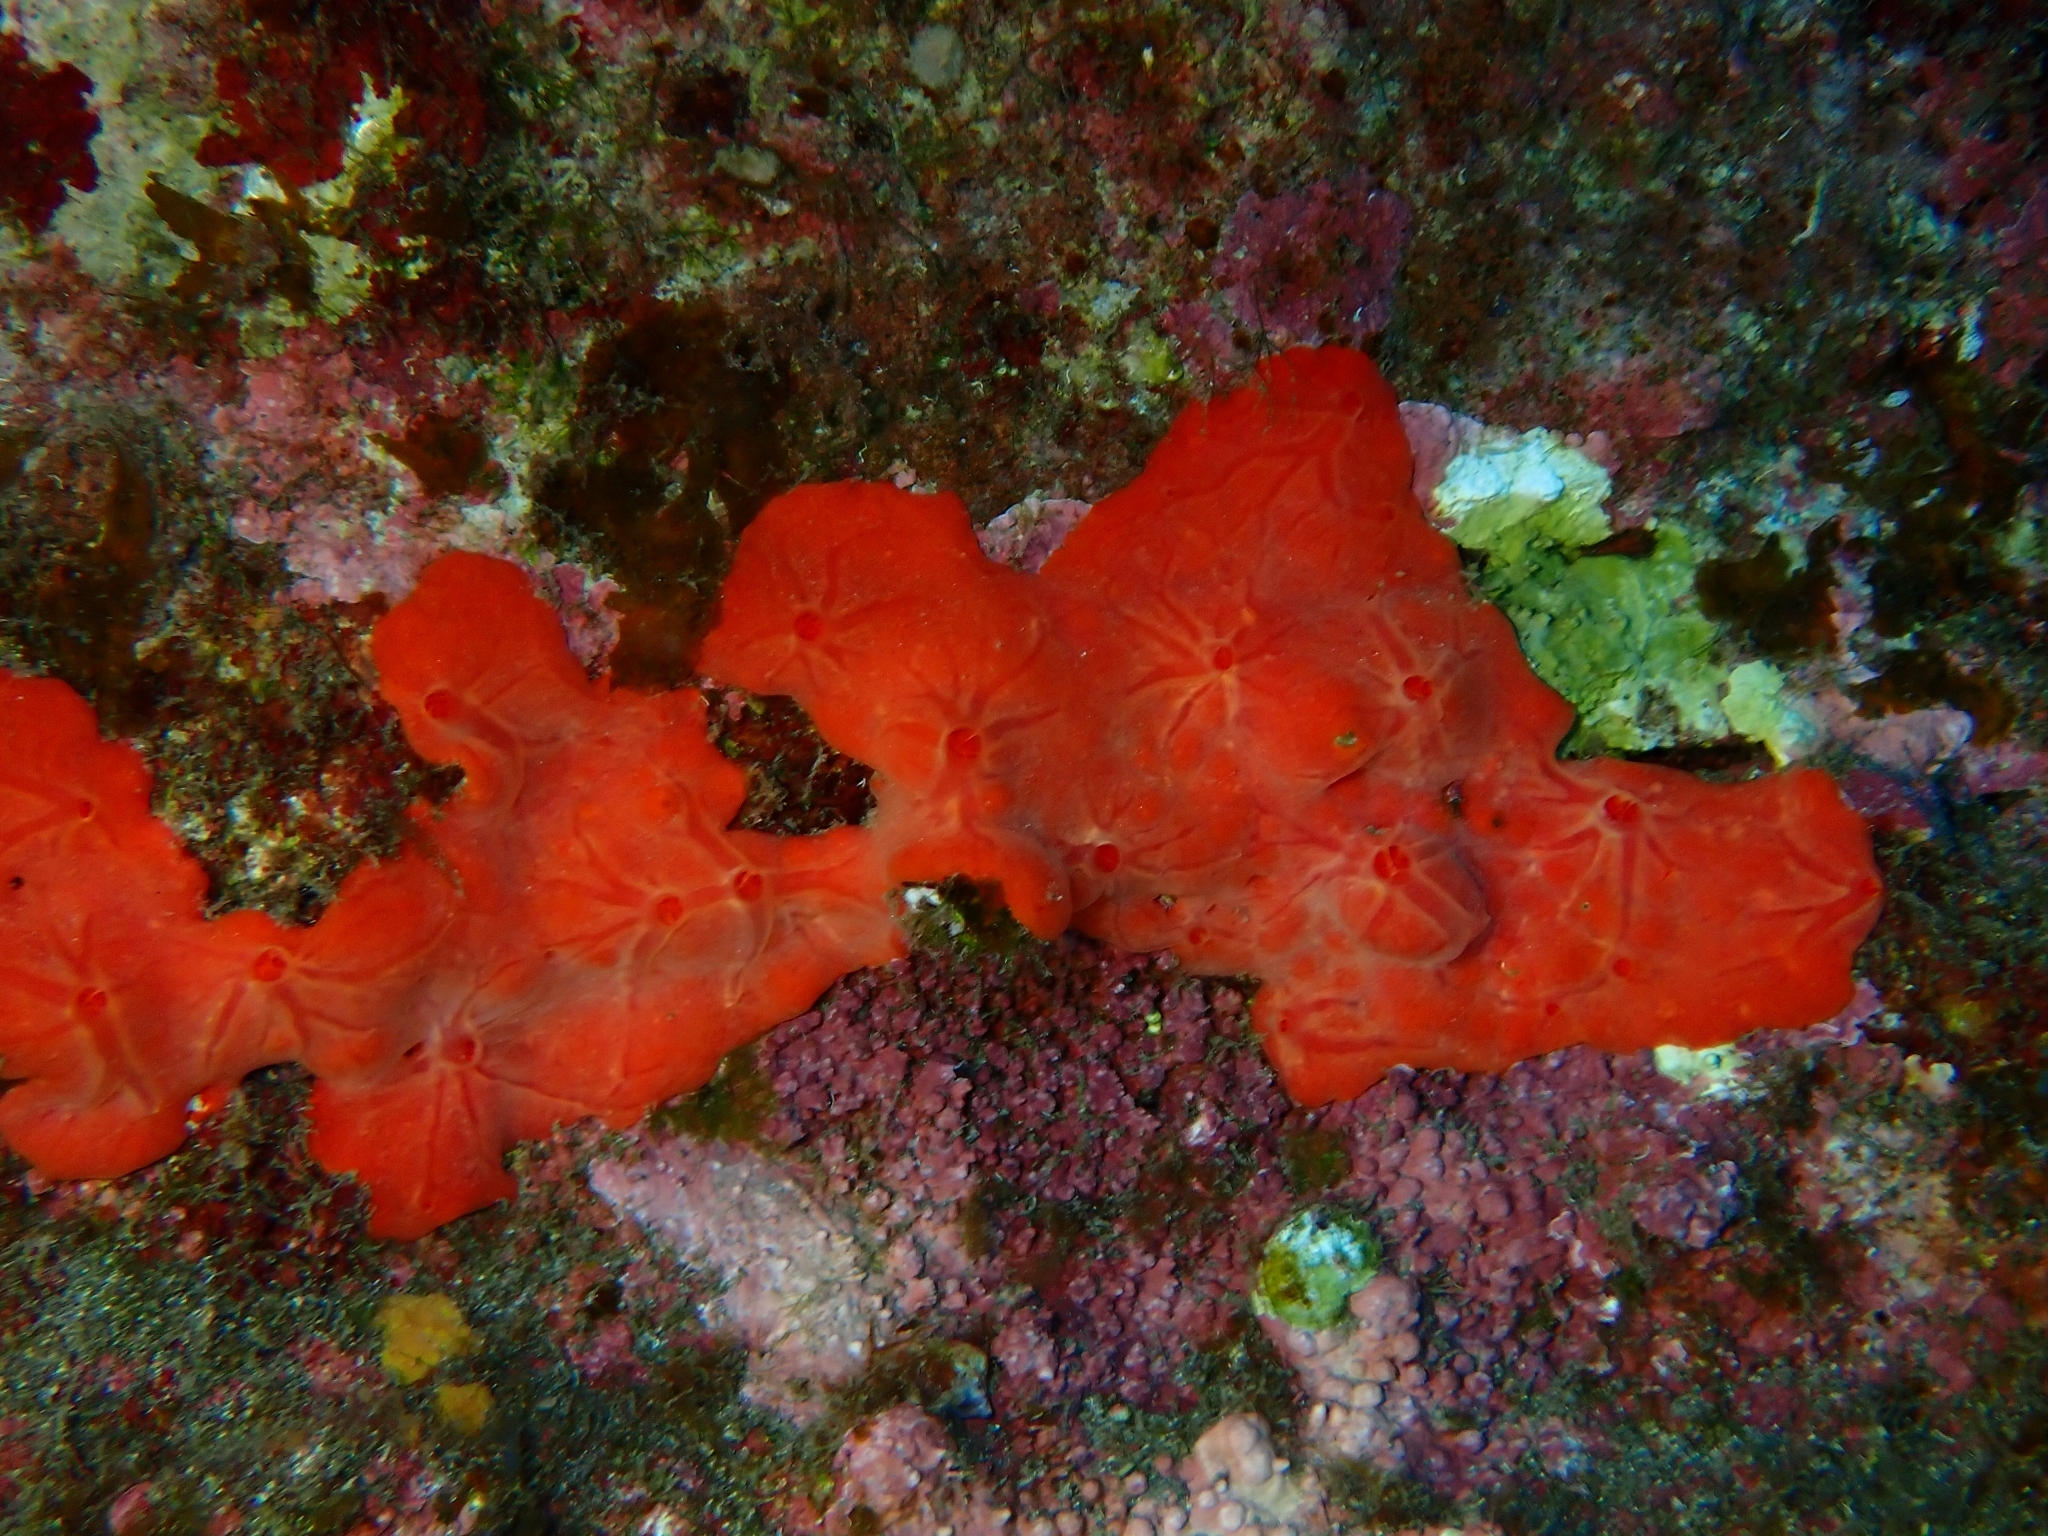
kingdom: Animalia
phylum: Porifera
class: Demospongiae
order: Poecilosclerida
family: Crambeidae
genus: Crambe
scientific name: Crambe crambe
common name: Orange-red encrusting sponge
